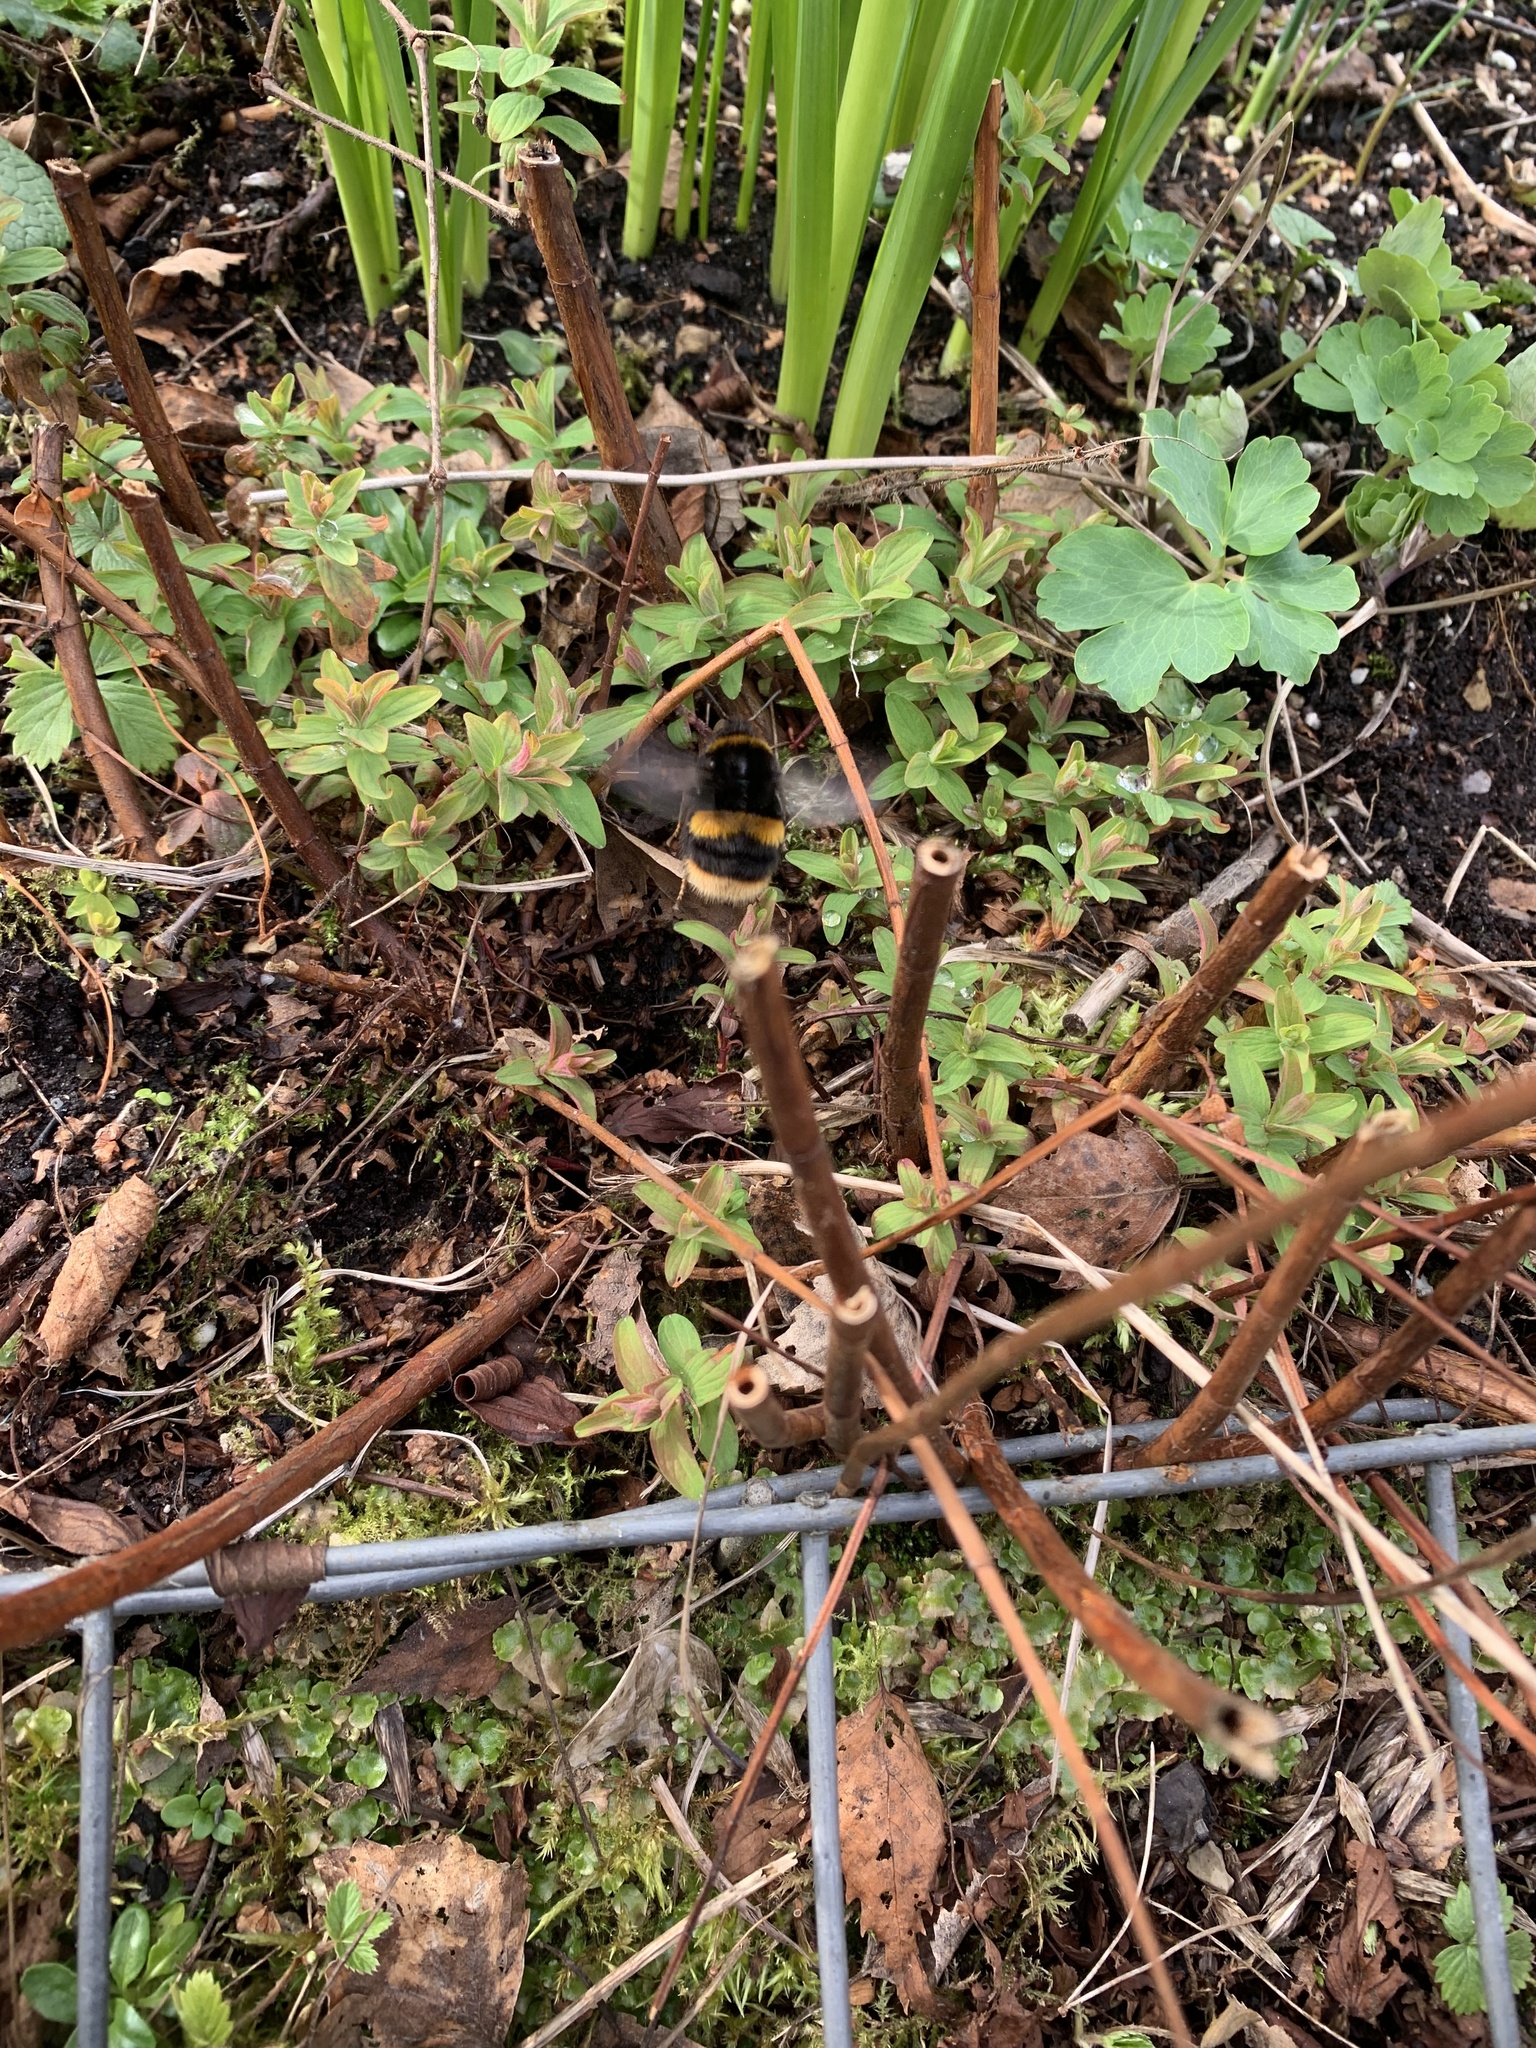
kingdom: Animalia
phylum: Arthropoda
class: Insecta
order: Hymenoptera
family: Apidae
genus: Bombus
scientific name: Bombus terrestris
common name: Buff-tailed bumblebee
